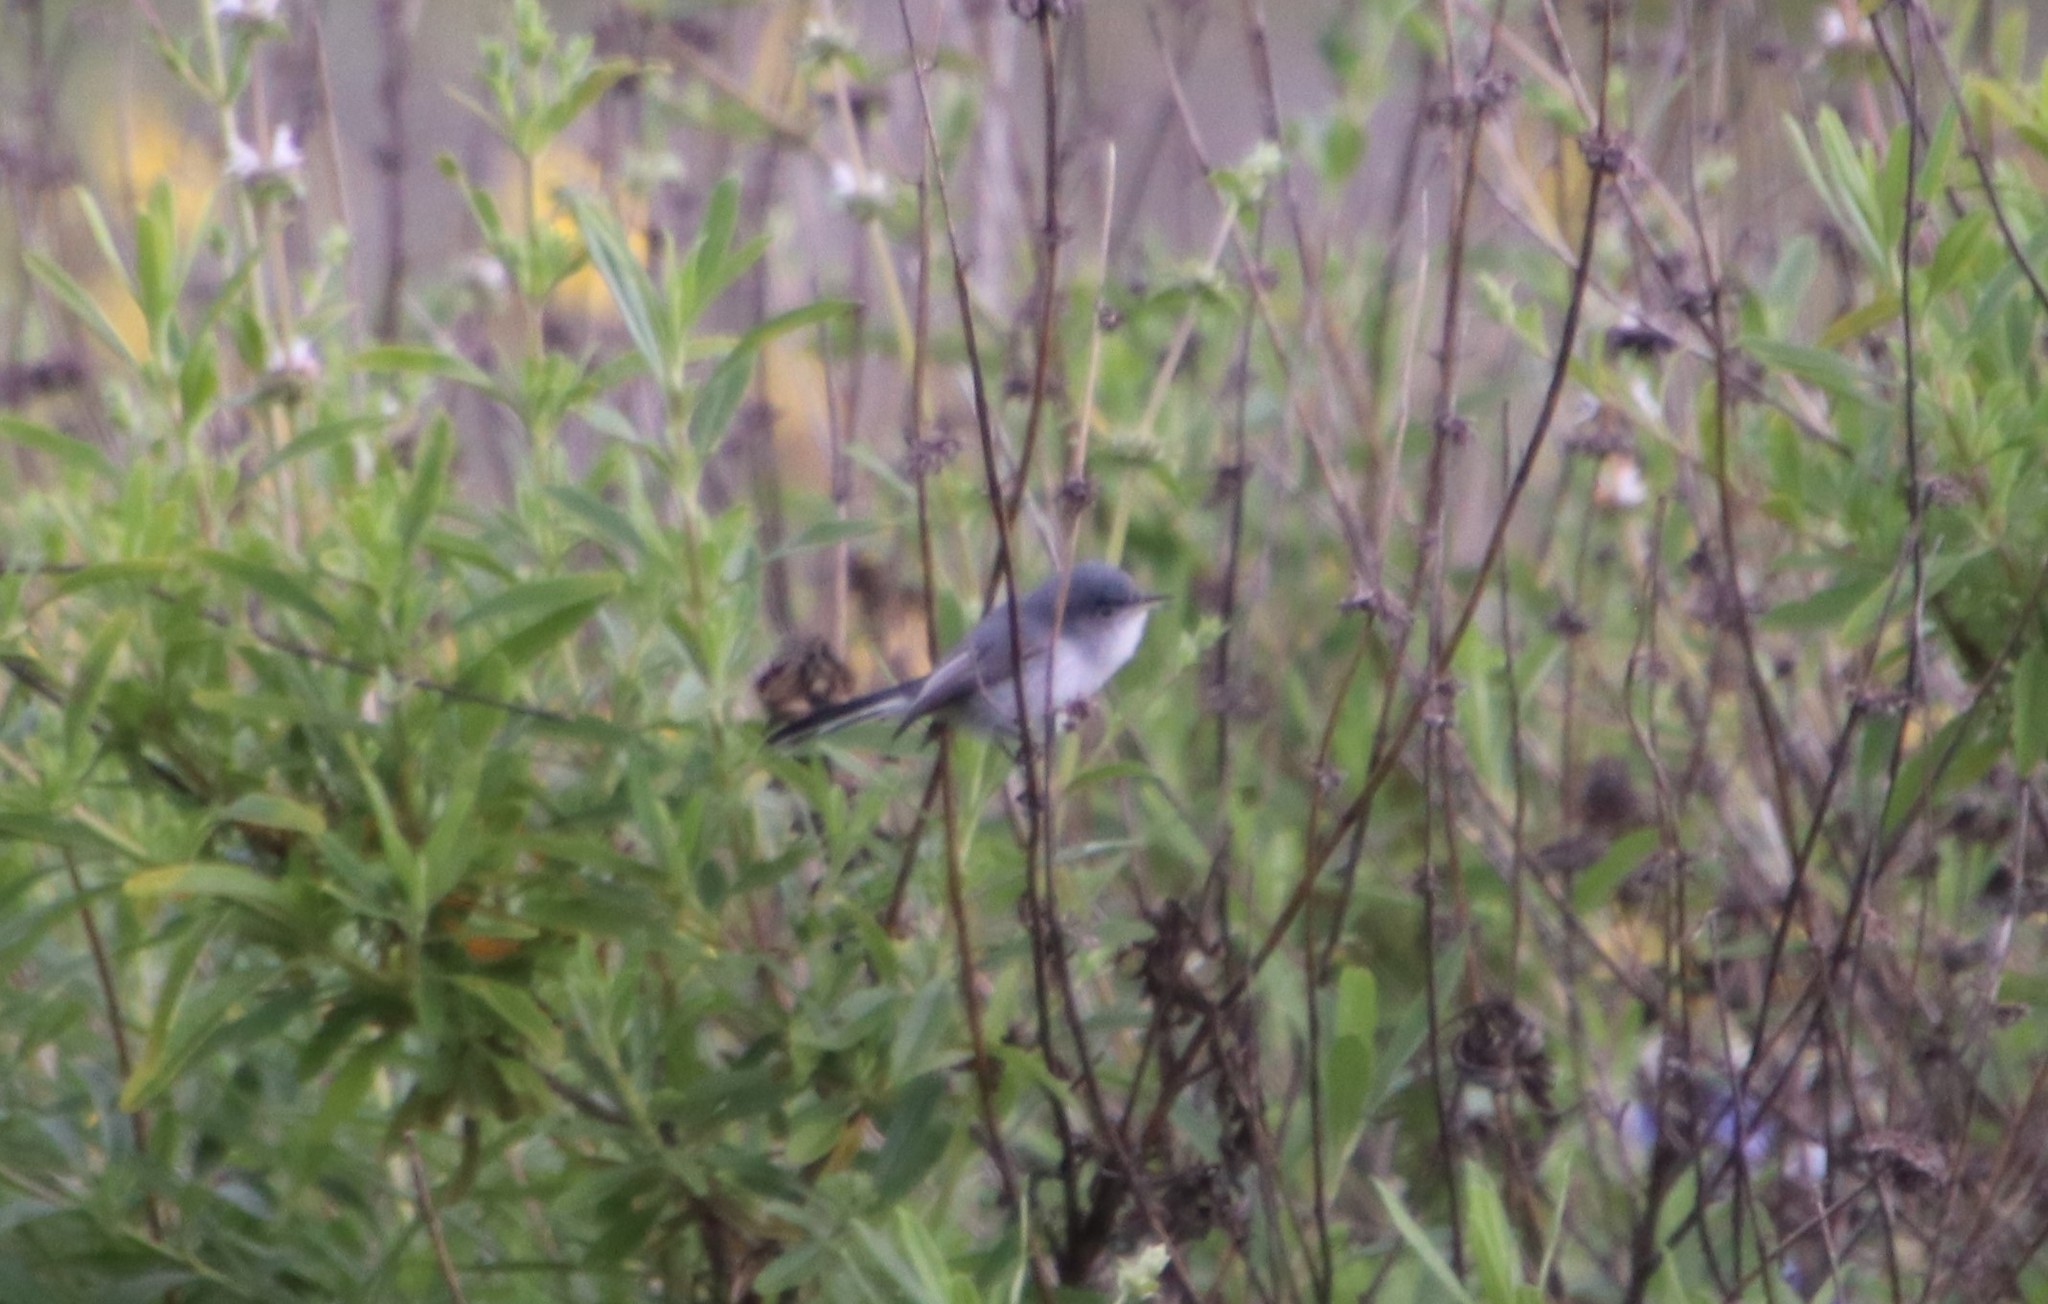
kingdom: Animalia
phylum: Chordata
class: Aves
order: Passeriformes
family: Polioptilidae
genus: Polioptila
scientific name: Polioptila caerulea
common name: Blue-gray gnatcatcher
